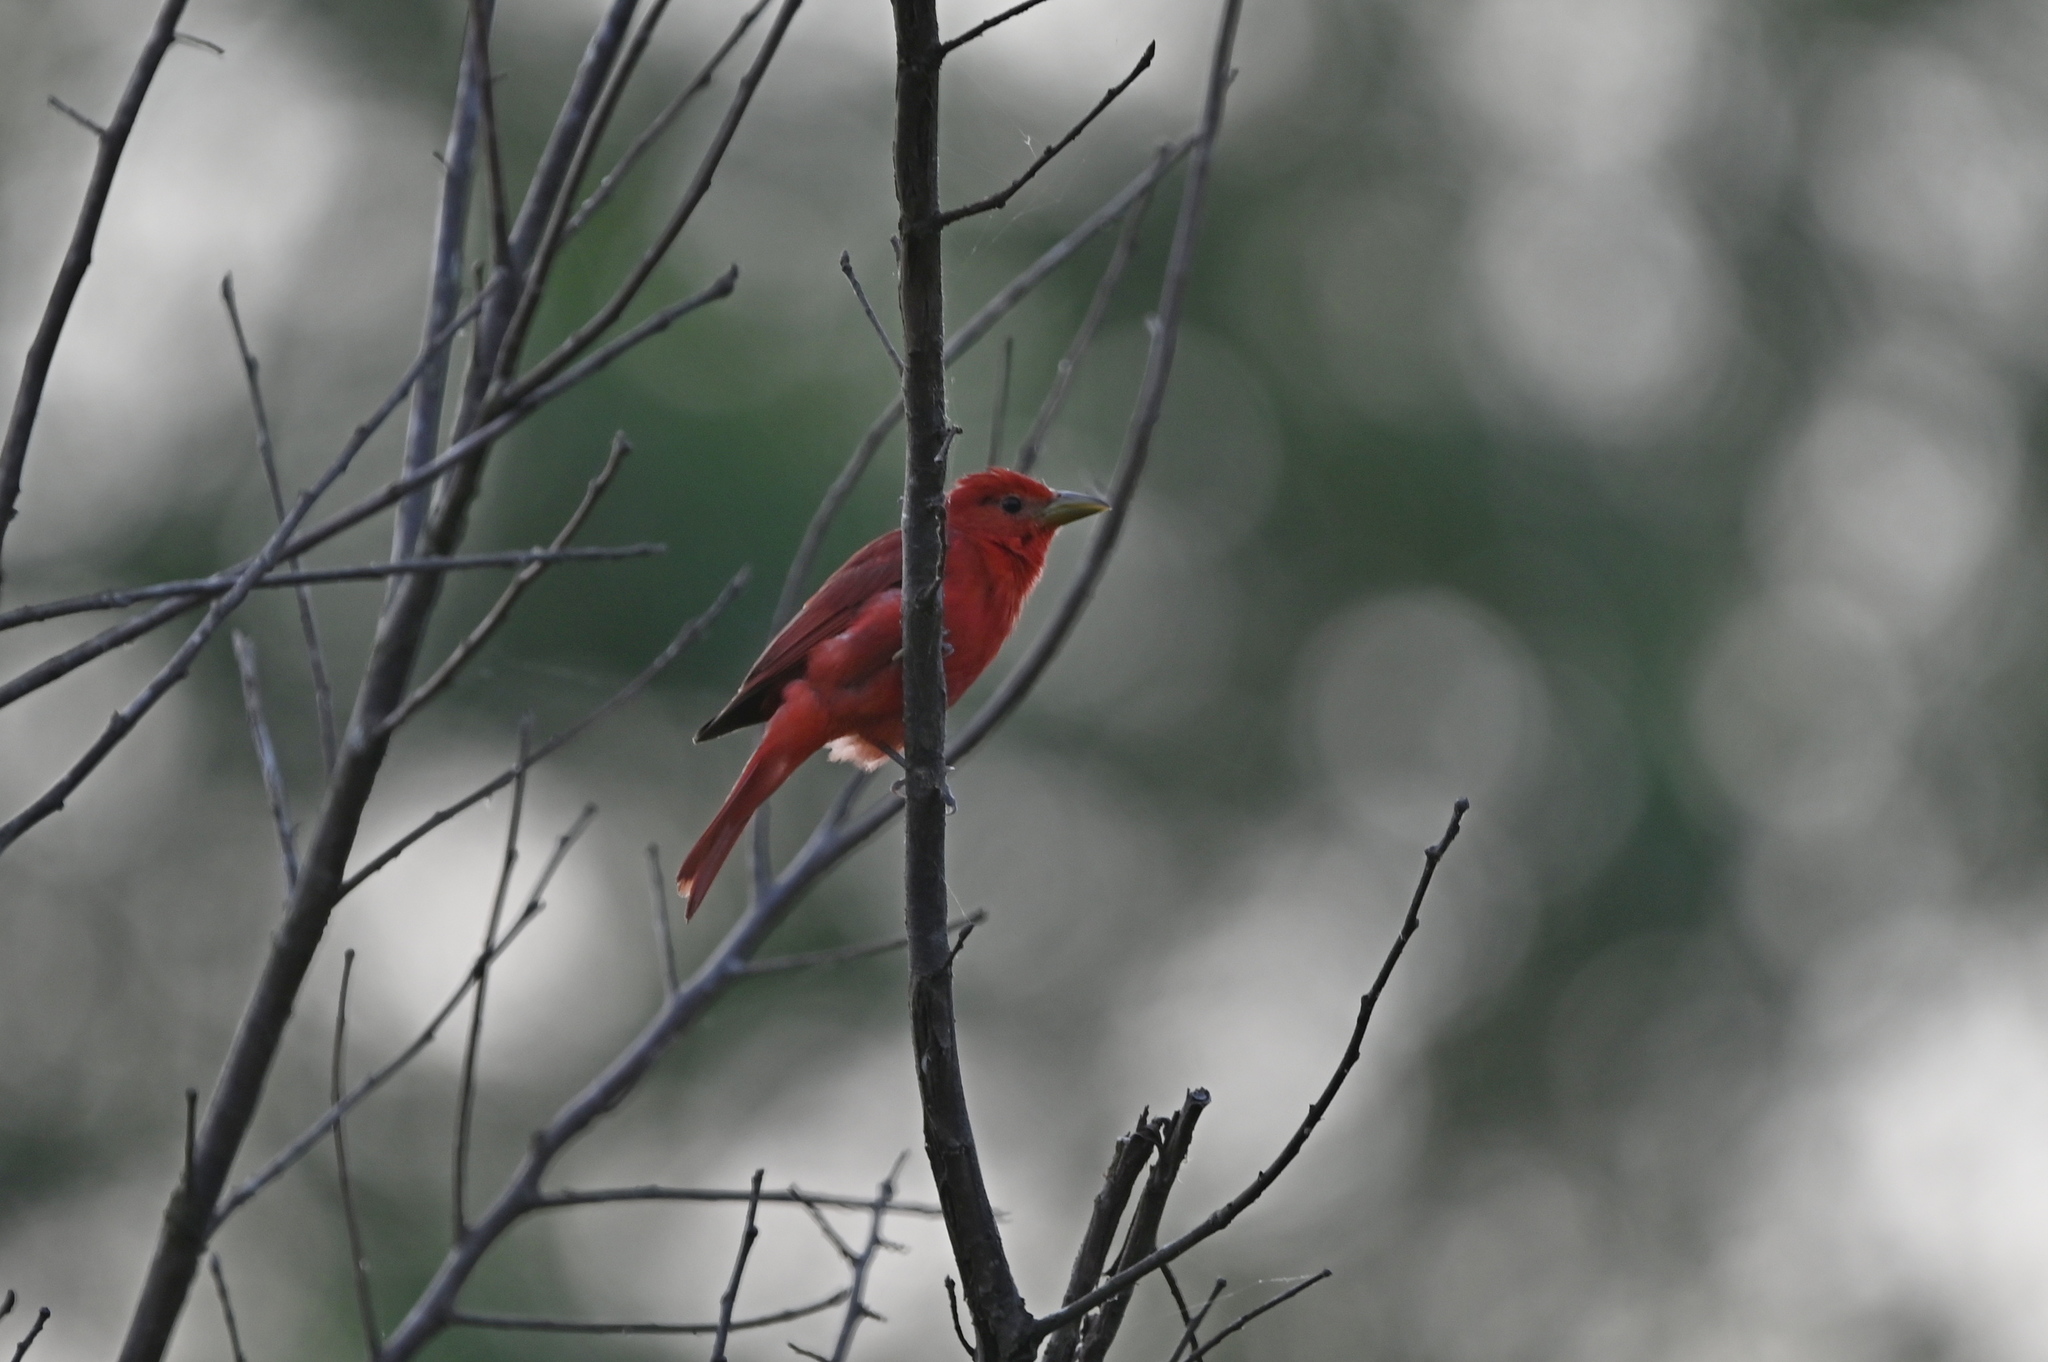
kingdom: Animalia
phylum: Chordata
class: Aves
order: Passeriformes
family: Cardinalidae
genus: Piranga
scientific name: Piranga rubra
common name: Summer tanager
